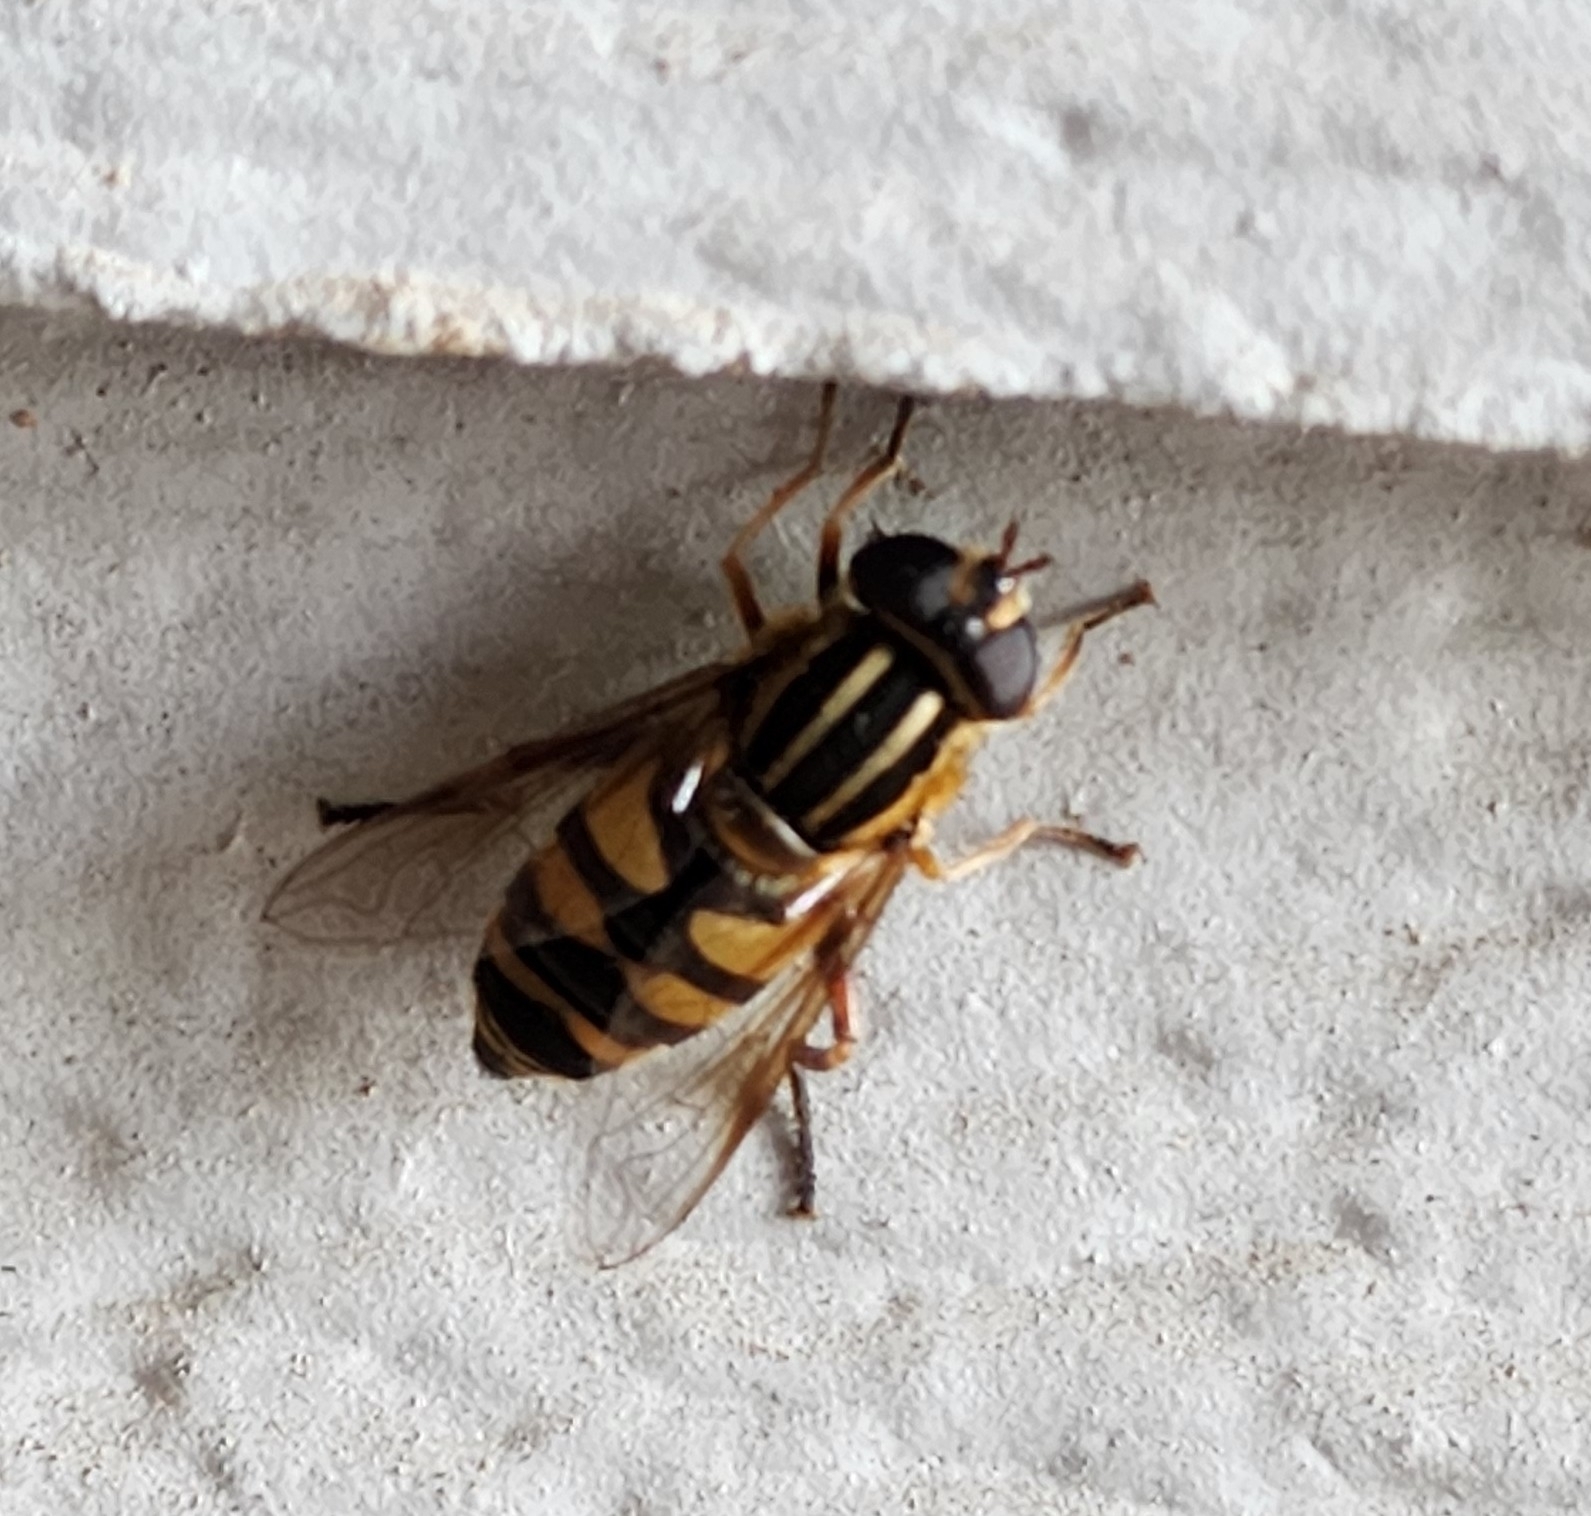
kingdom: Animalia
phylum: Arthropoda
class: Insecta
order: Diptera
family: Syrphidae
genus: Helophilus
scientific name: Helophilus fasciatus
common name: Narrow-headed marsh fly
